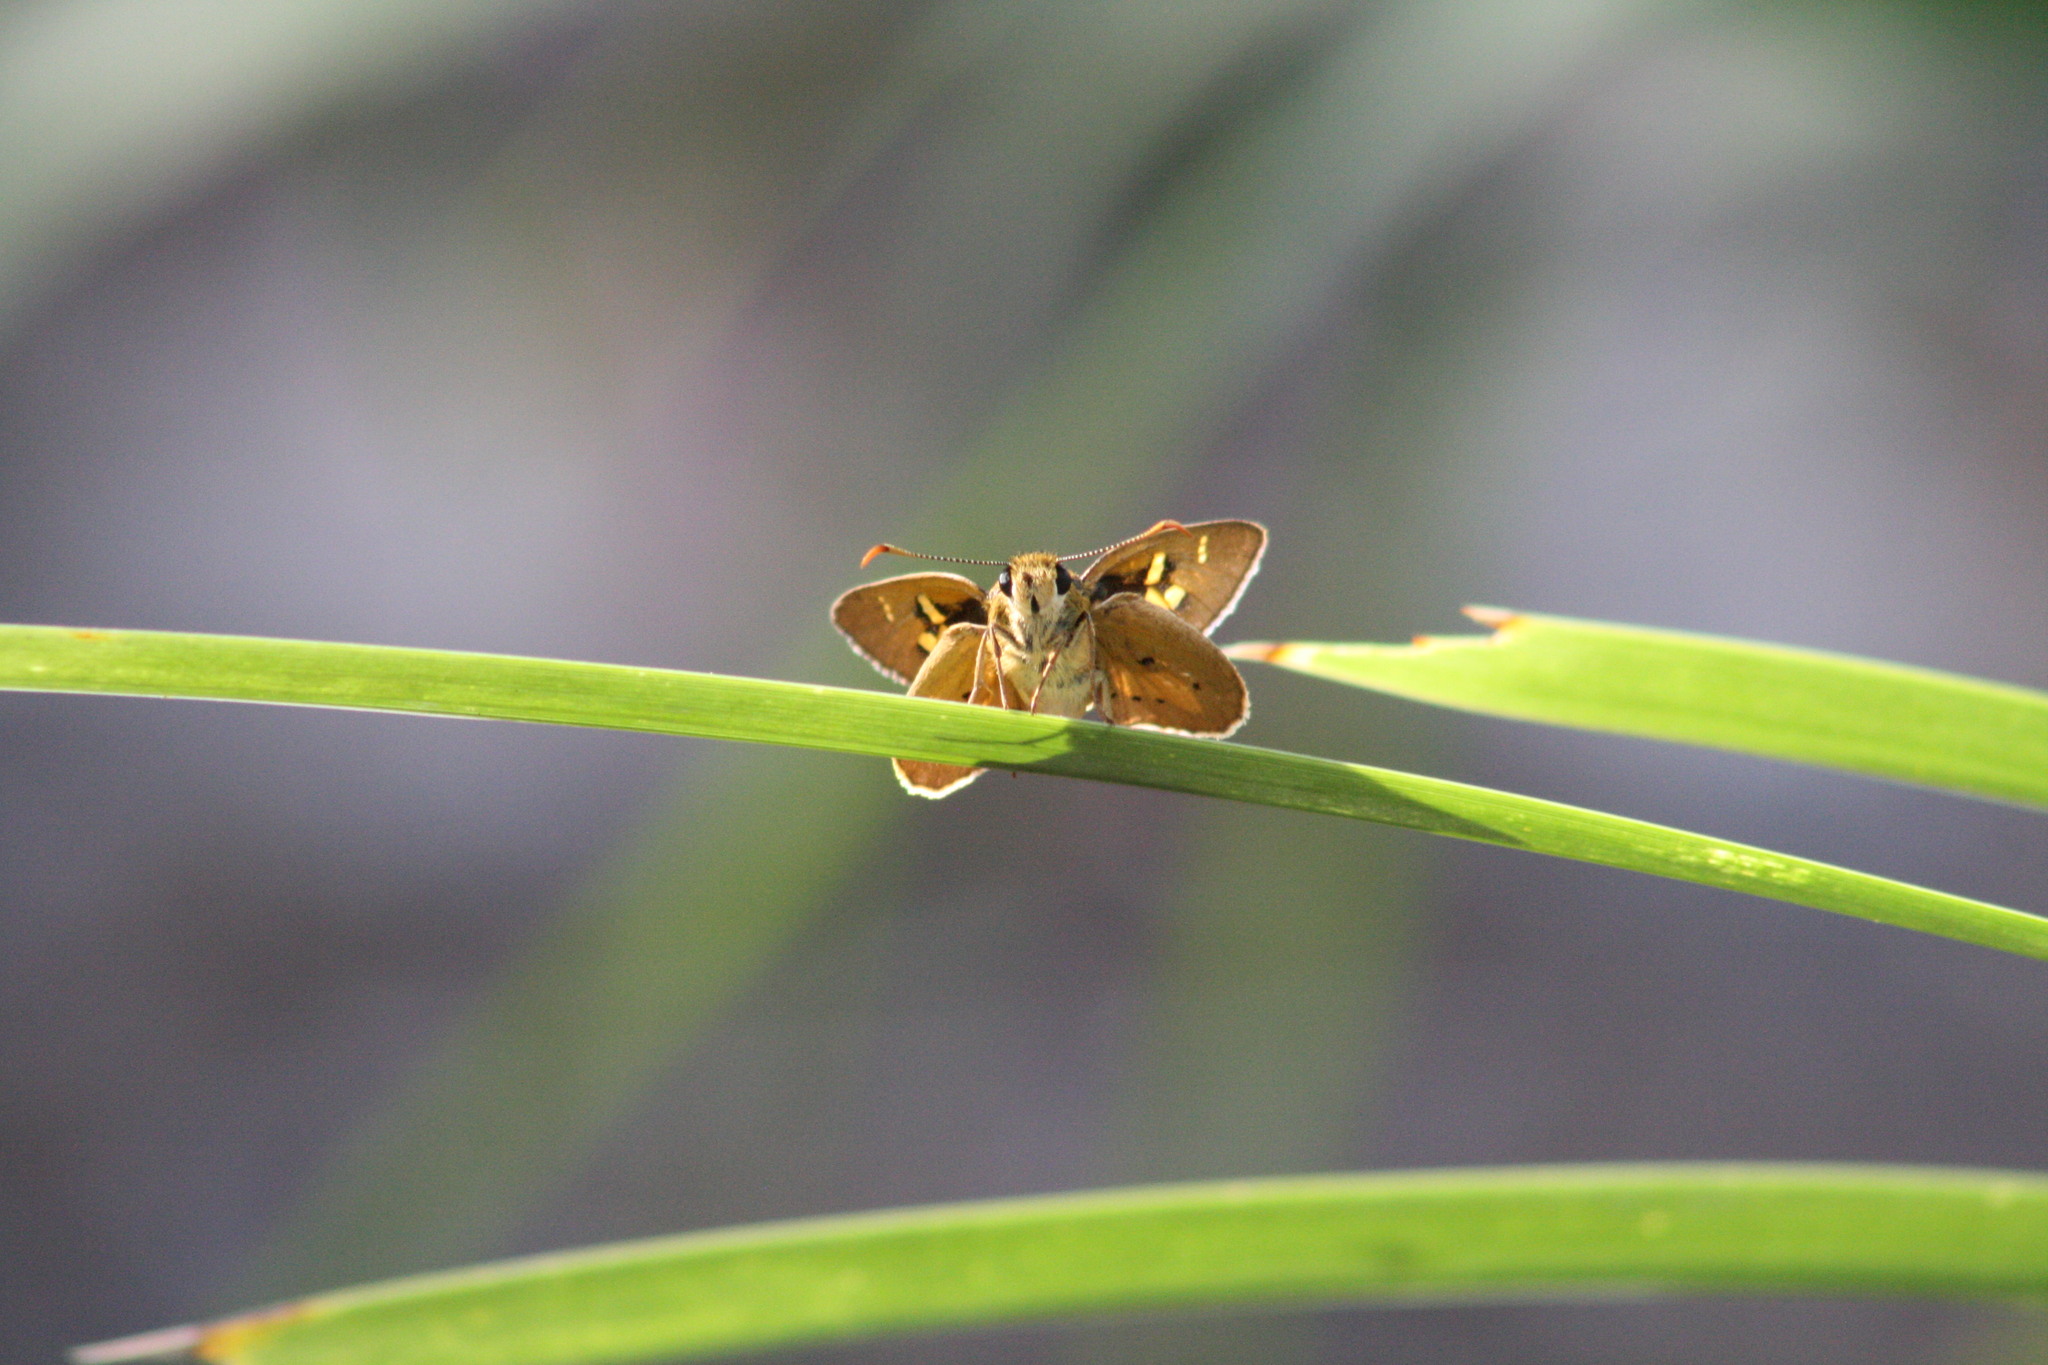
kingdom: Animalia
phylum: Arthropoda
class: Insecta
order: Lepidoptera
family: Hesperiidae
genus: Trapezites
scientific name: Trapezites eliena
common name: Eliena skipper
